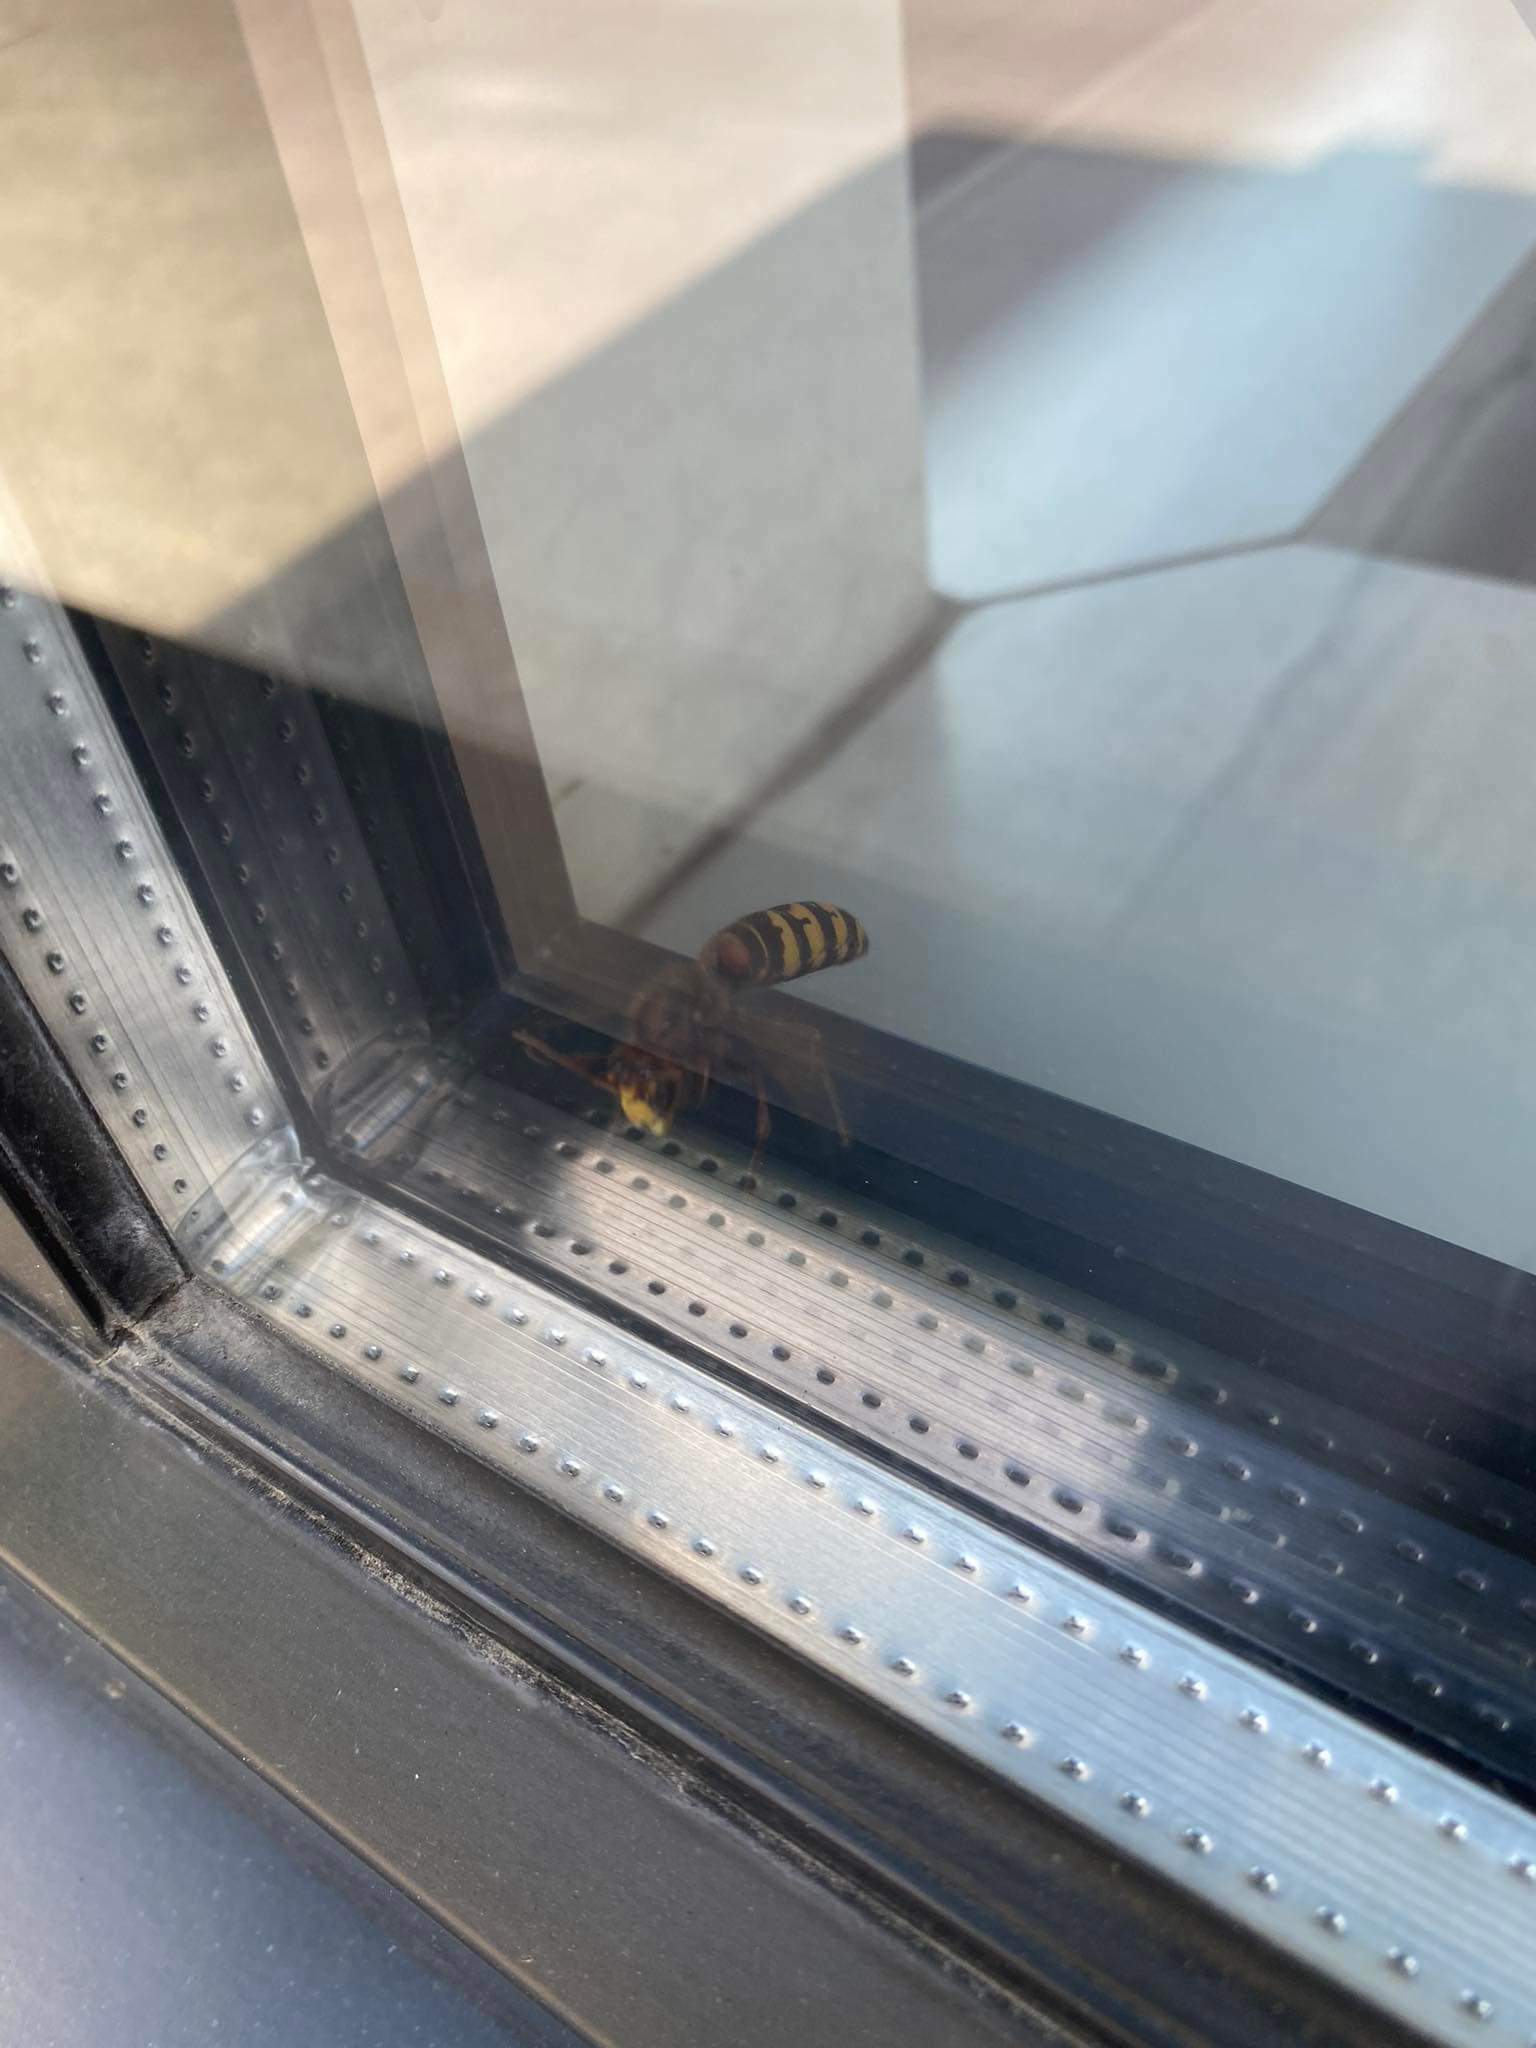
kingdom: Animalia
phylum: Arthropoda
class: Insecta
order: Hymenoptera
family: Vespidae
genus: Vespa
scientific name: Vespa crabro
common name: Hornet
